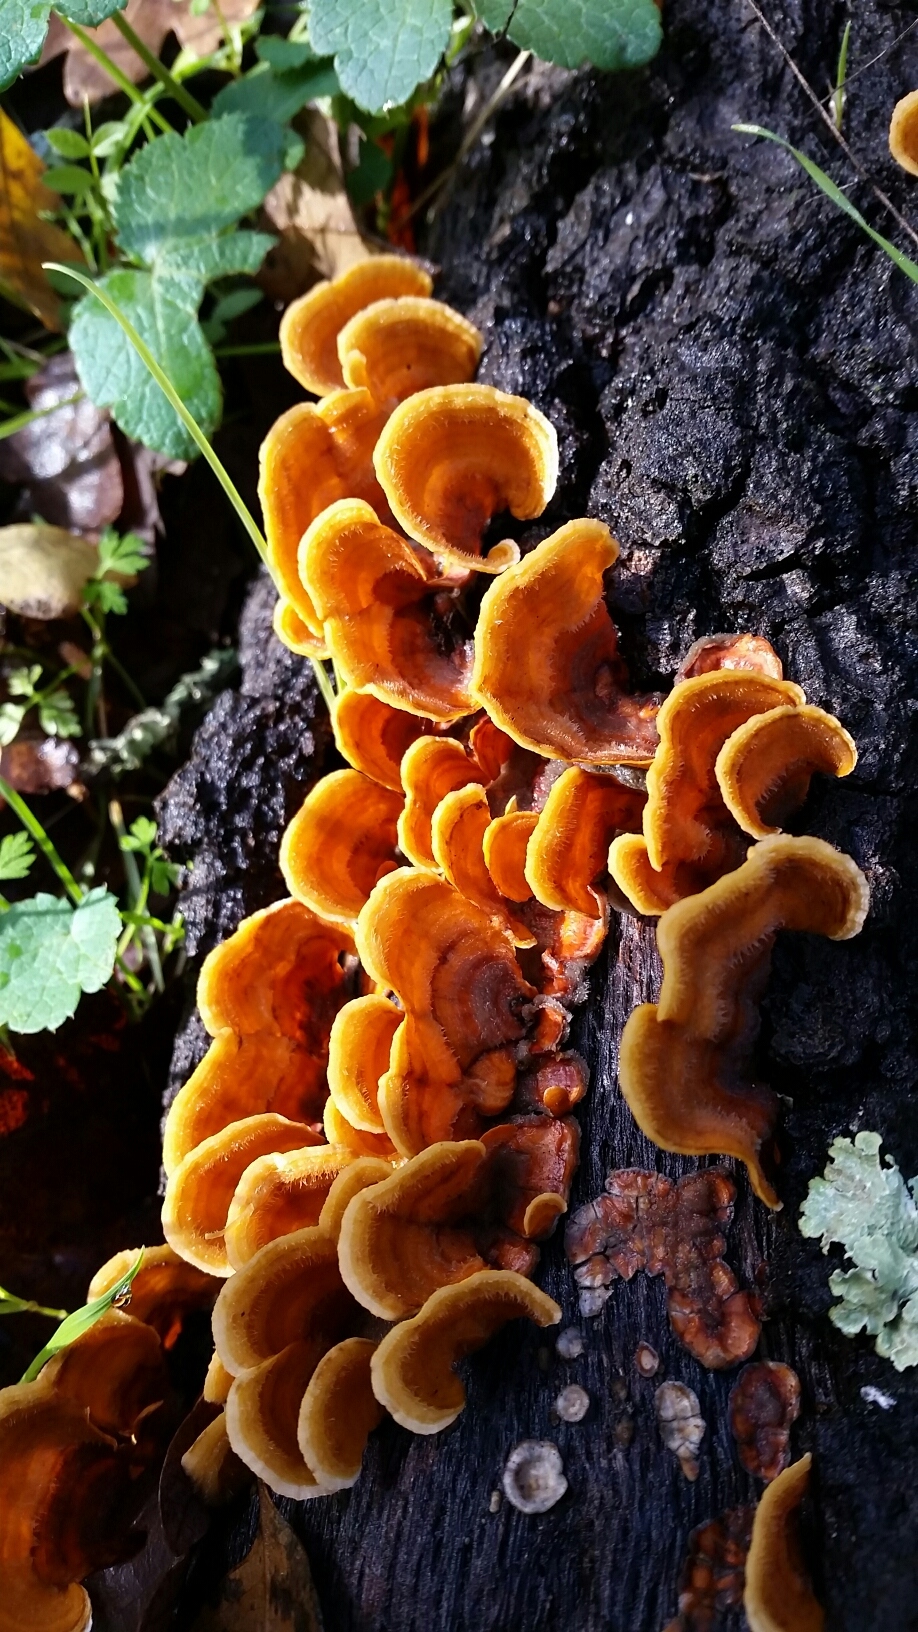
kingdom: Fungi
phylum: Basidiomycota
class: Agaricomycetes
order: Russulales
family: Stereaceae
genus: Stereum
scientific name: Stereum hirsutum
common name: Hairy curtain crust
